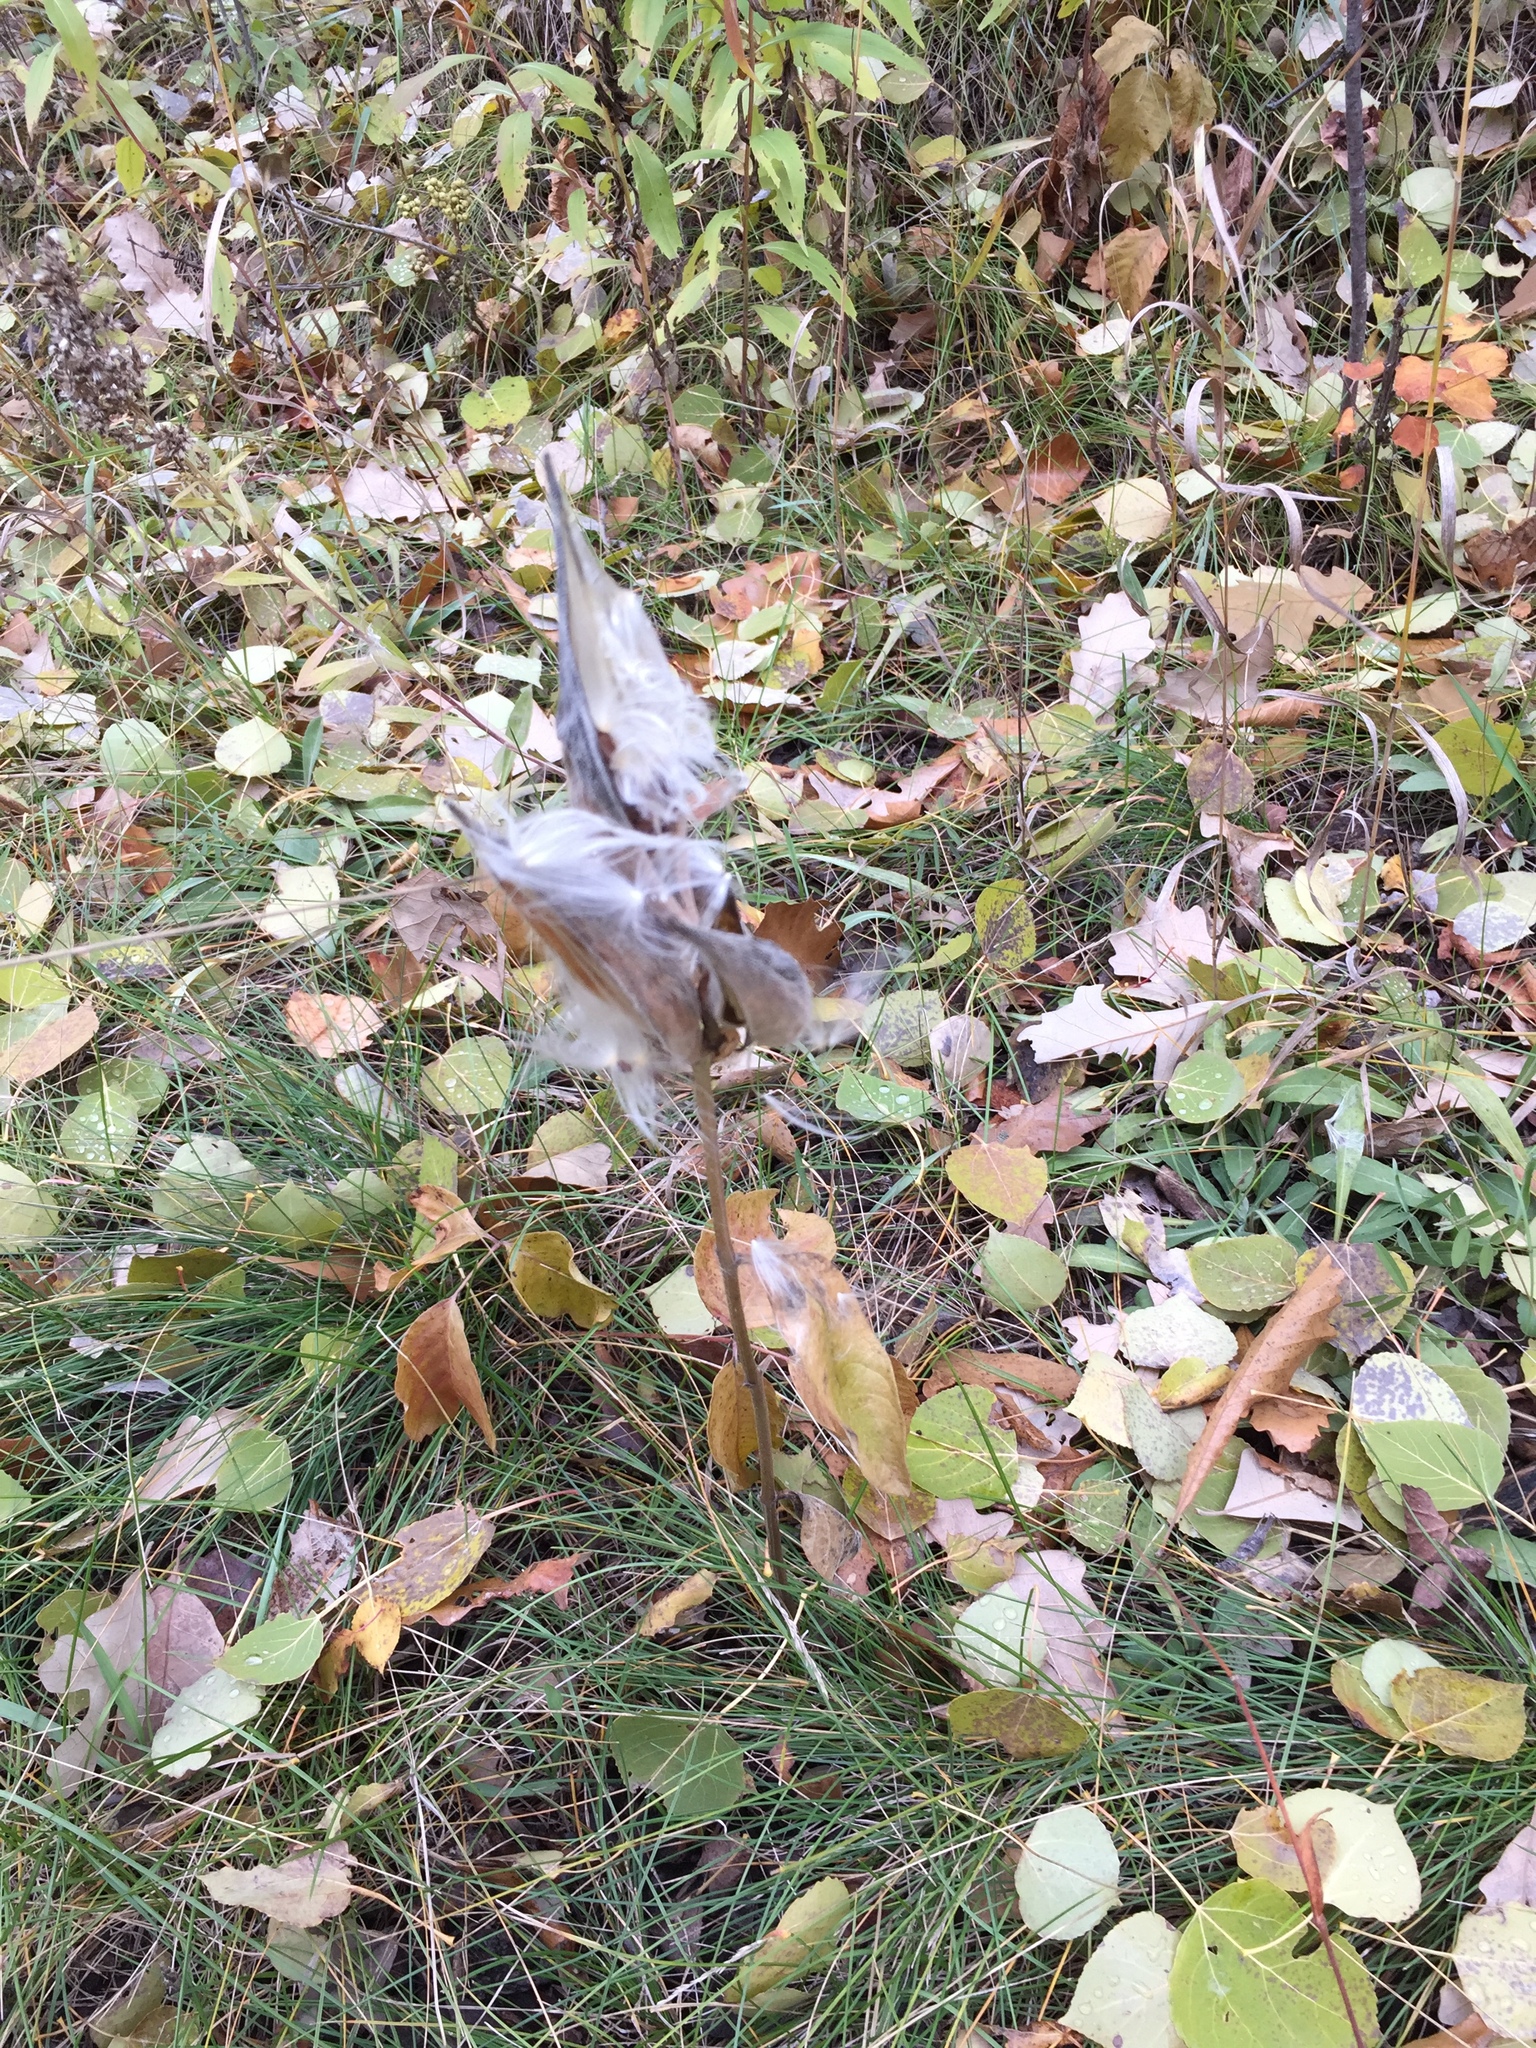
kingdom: Plantae
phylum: Tracheophyta
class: Magnoliopsida
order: Gentianales
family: Apocynaceae
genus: Asclepias
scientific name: Asclepias ovalifolia
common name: Dwarf milkweed
